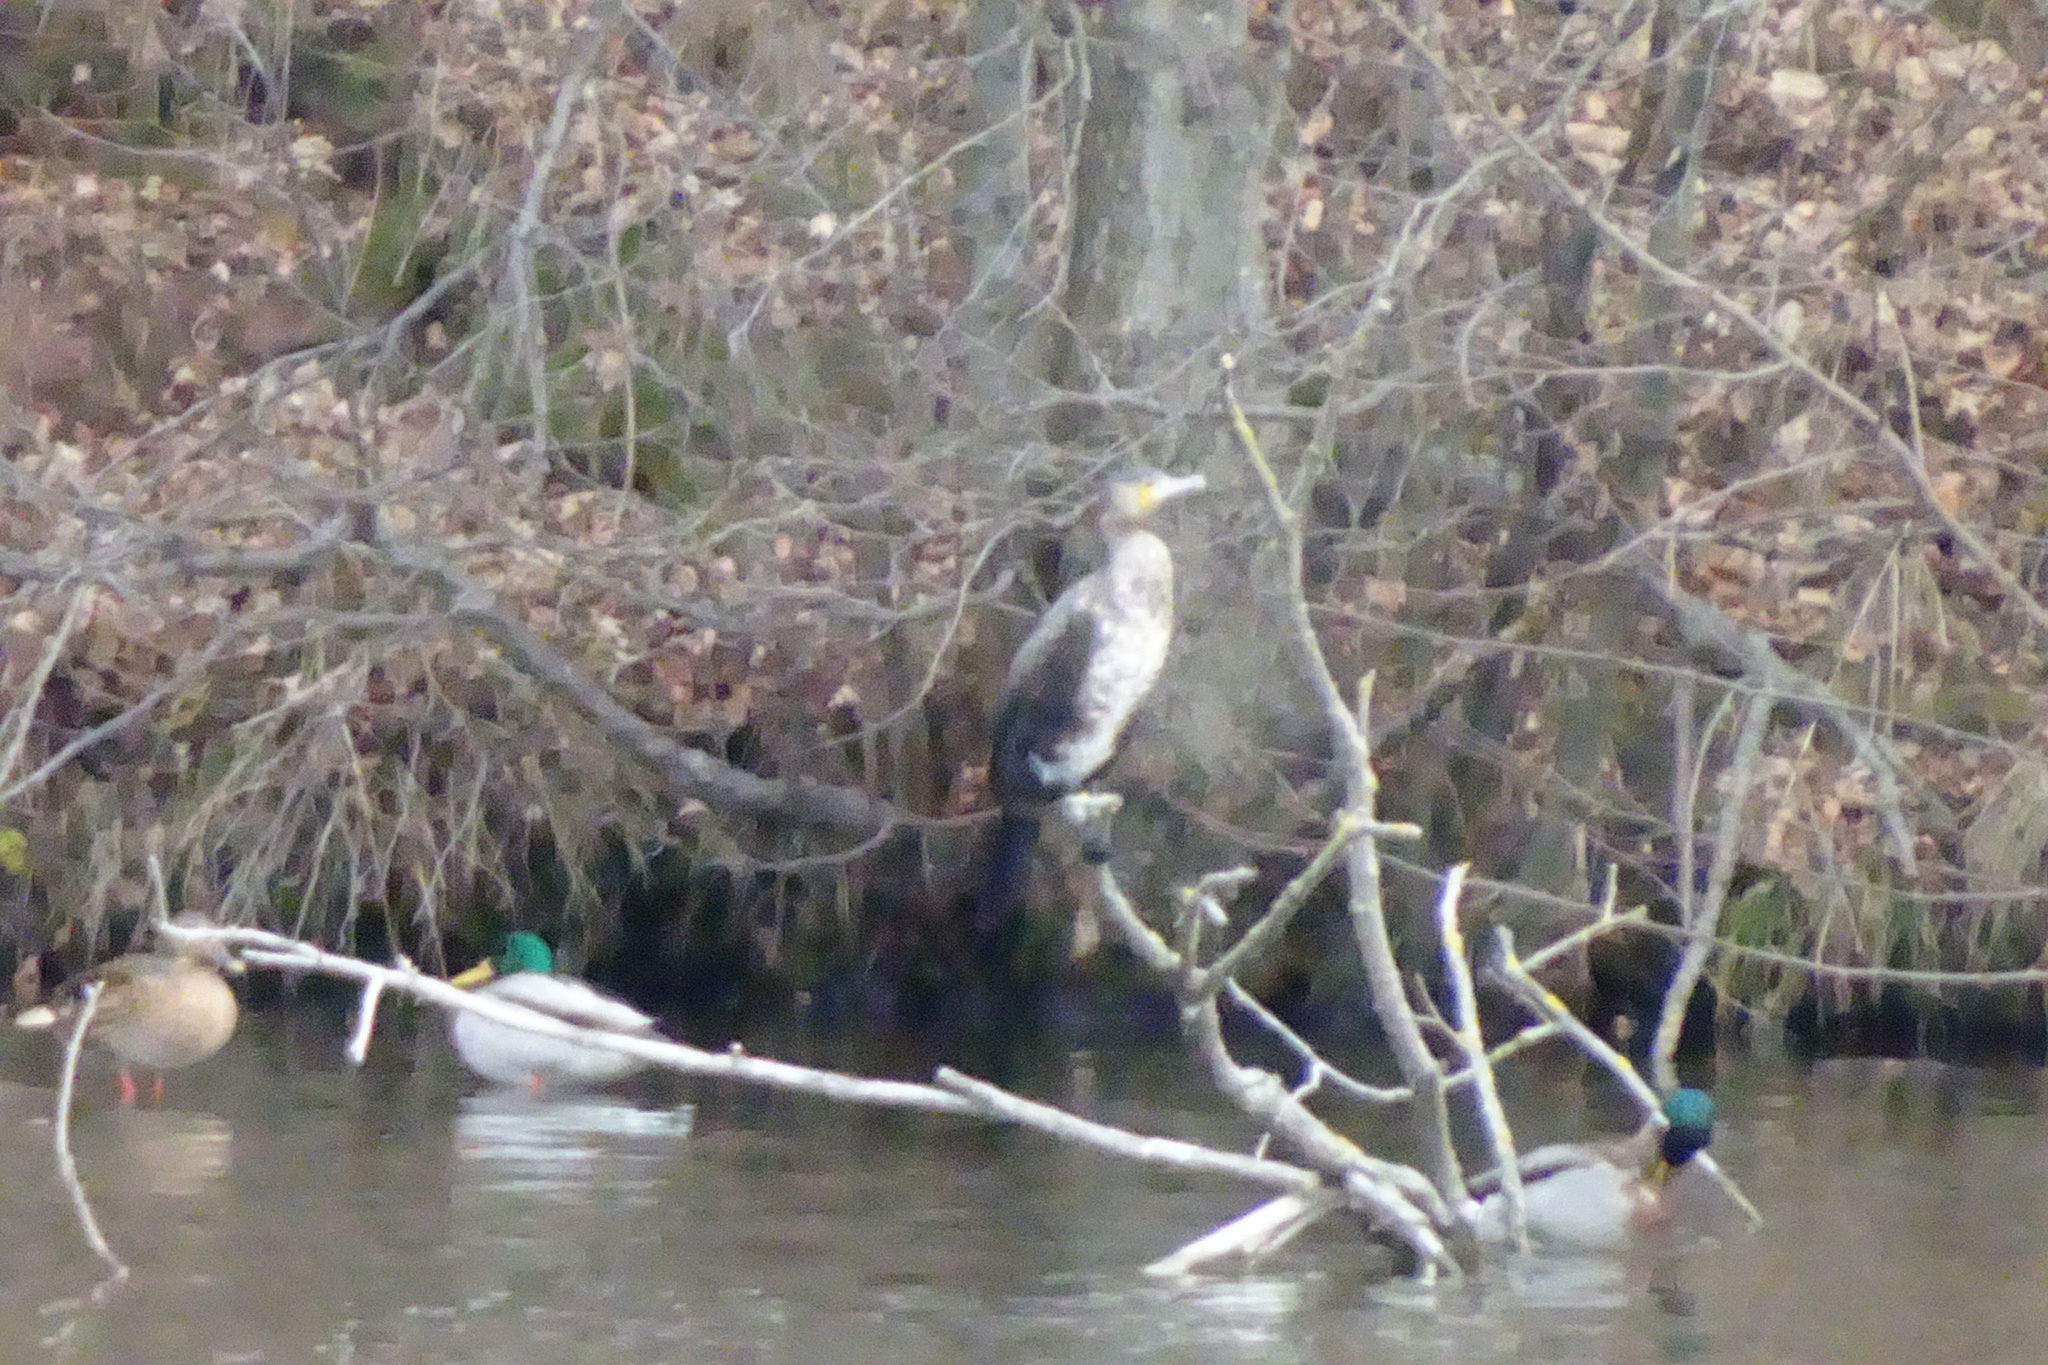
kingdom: Animalia
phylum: Chordata
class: Aves
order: Suliformes
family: Phalacrocoracidae
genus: Phalacrocorax
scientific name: Phalacrocorax carbo
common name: Great cormorant
